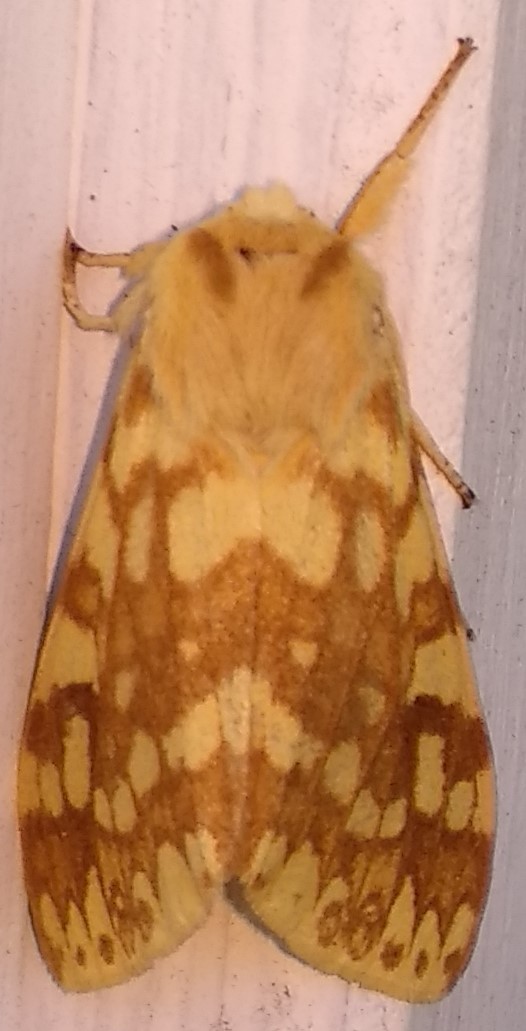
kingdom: Animalia
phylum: Arthropoda
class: Insecta
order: Lepidoptera
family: Erebidae
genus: Lophocampa
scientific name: Lophocampa maculata
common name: Spotted tussock moth
